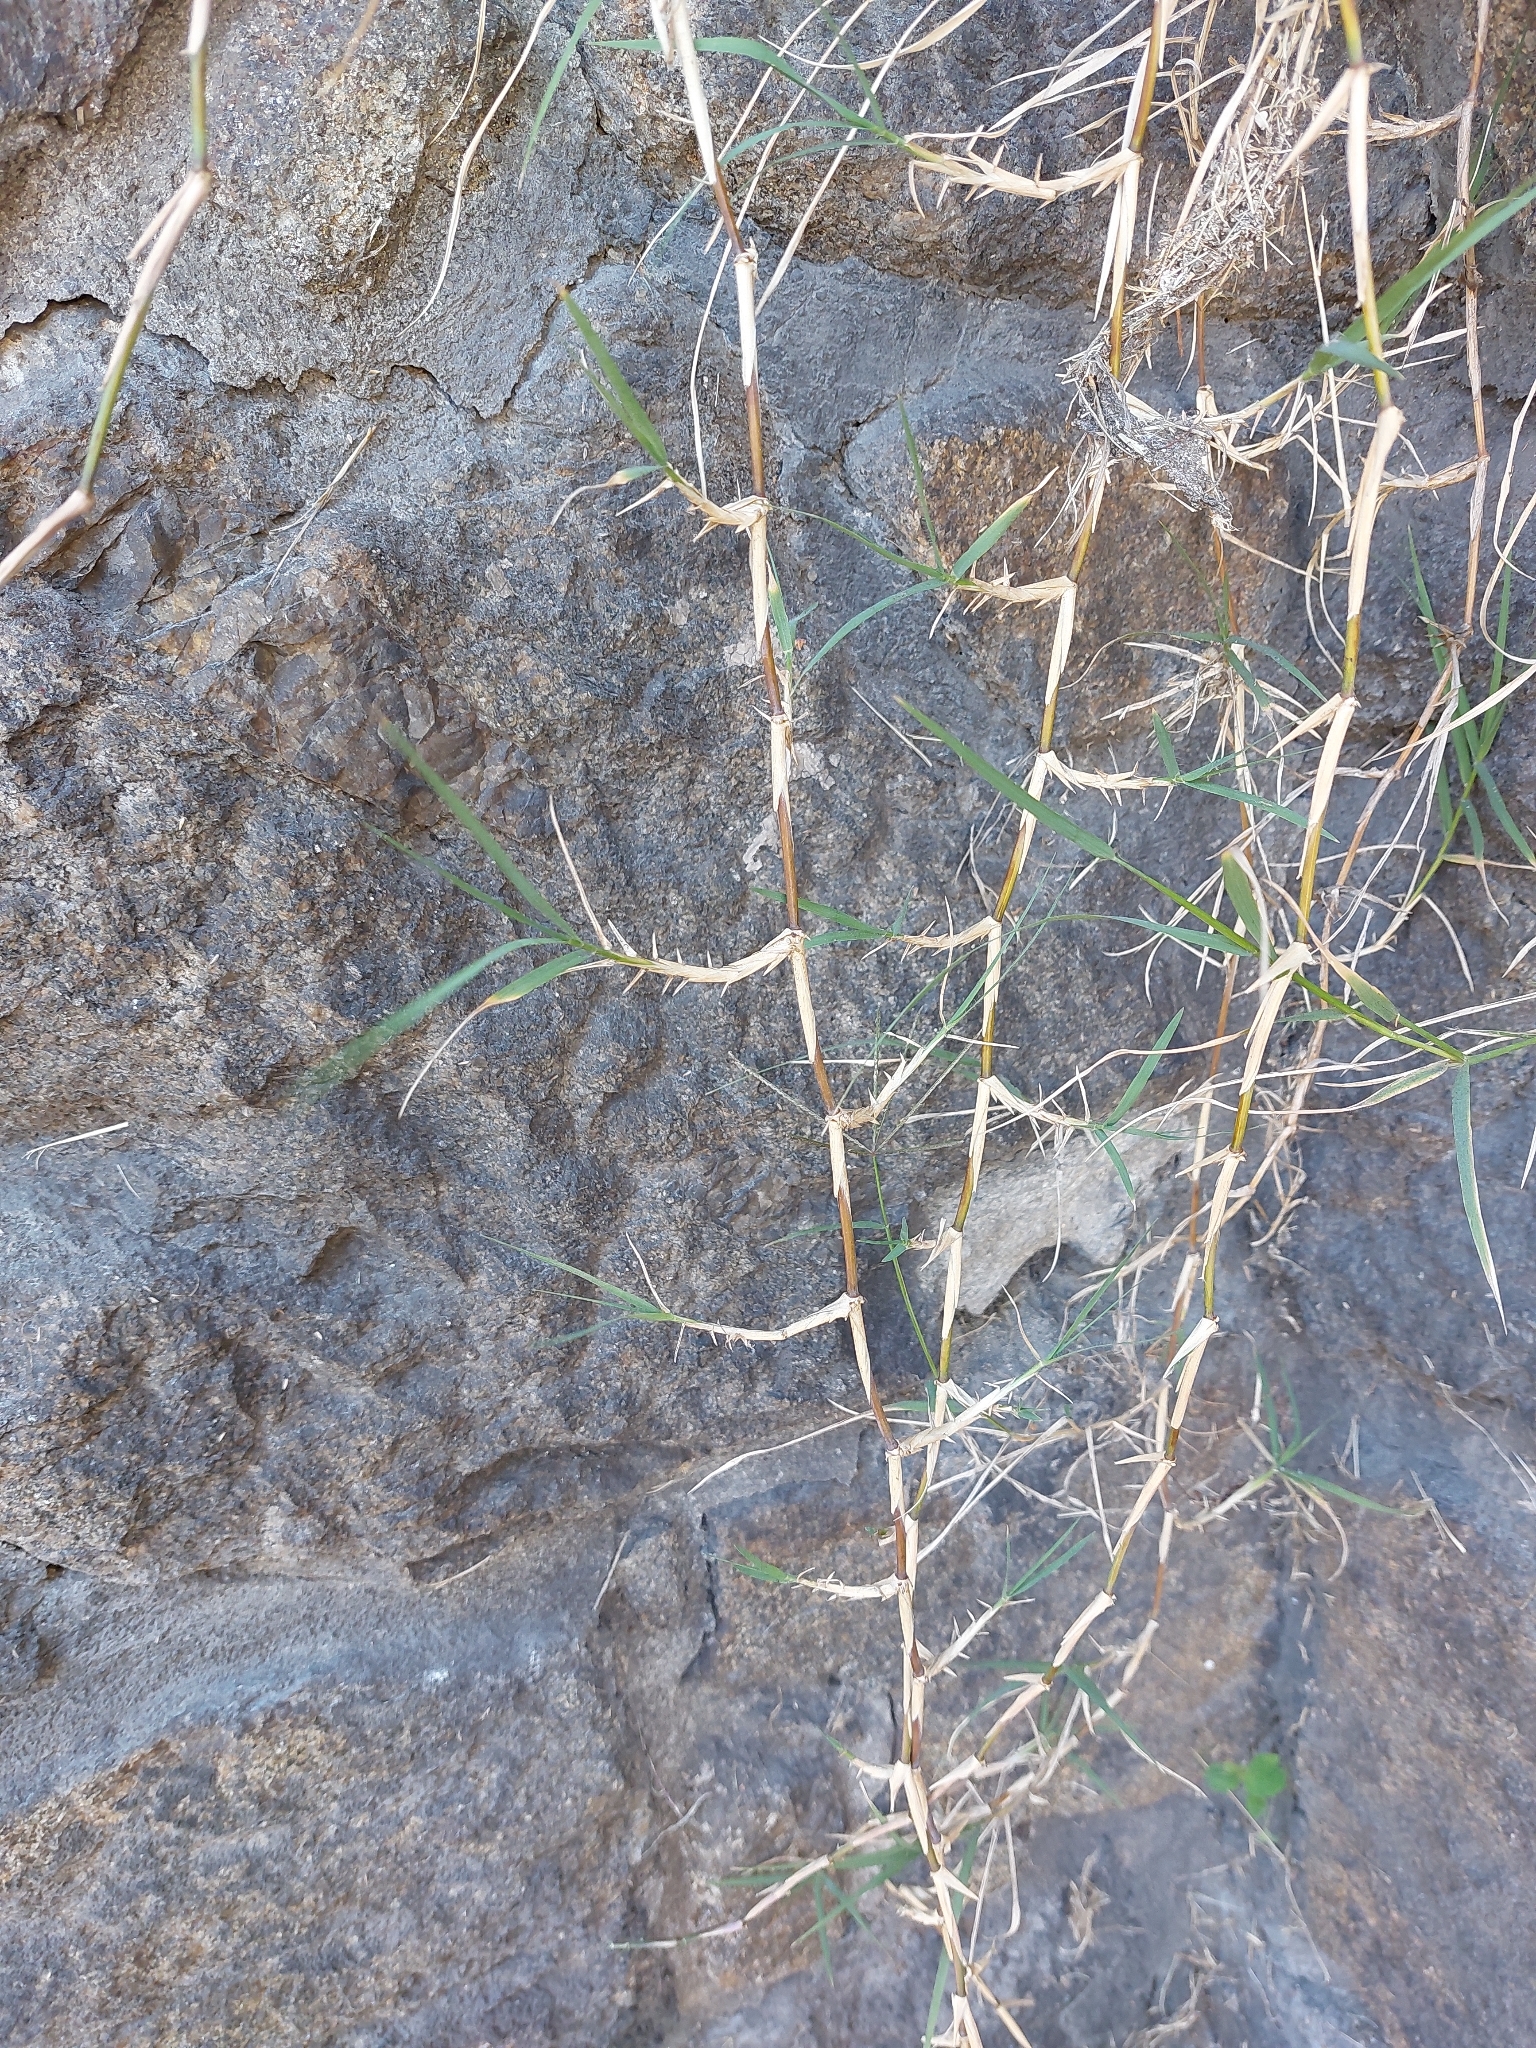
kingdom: Plantae
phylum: Tracheophyta
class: Liliopsida
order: Poales
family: Poaceae
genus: Cynodon
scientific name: Cynodon dactylon
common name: Bermuda grass
